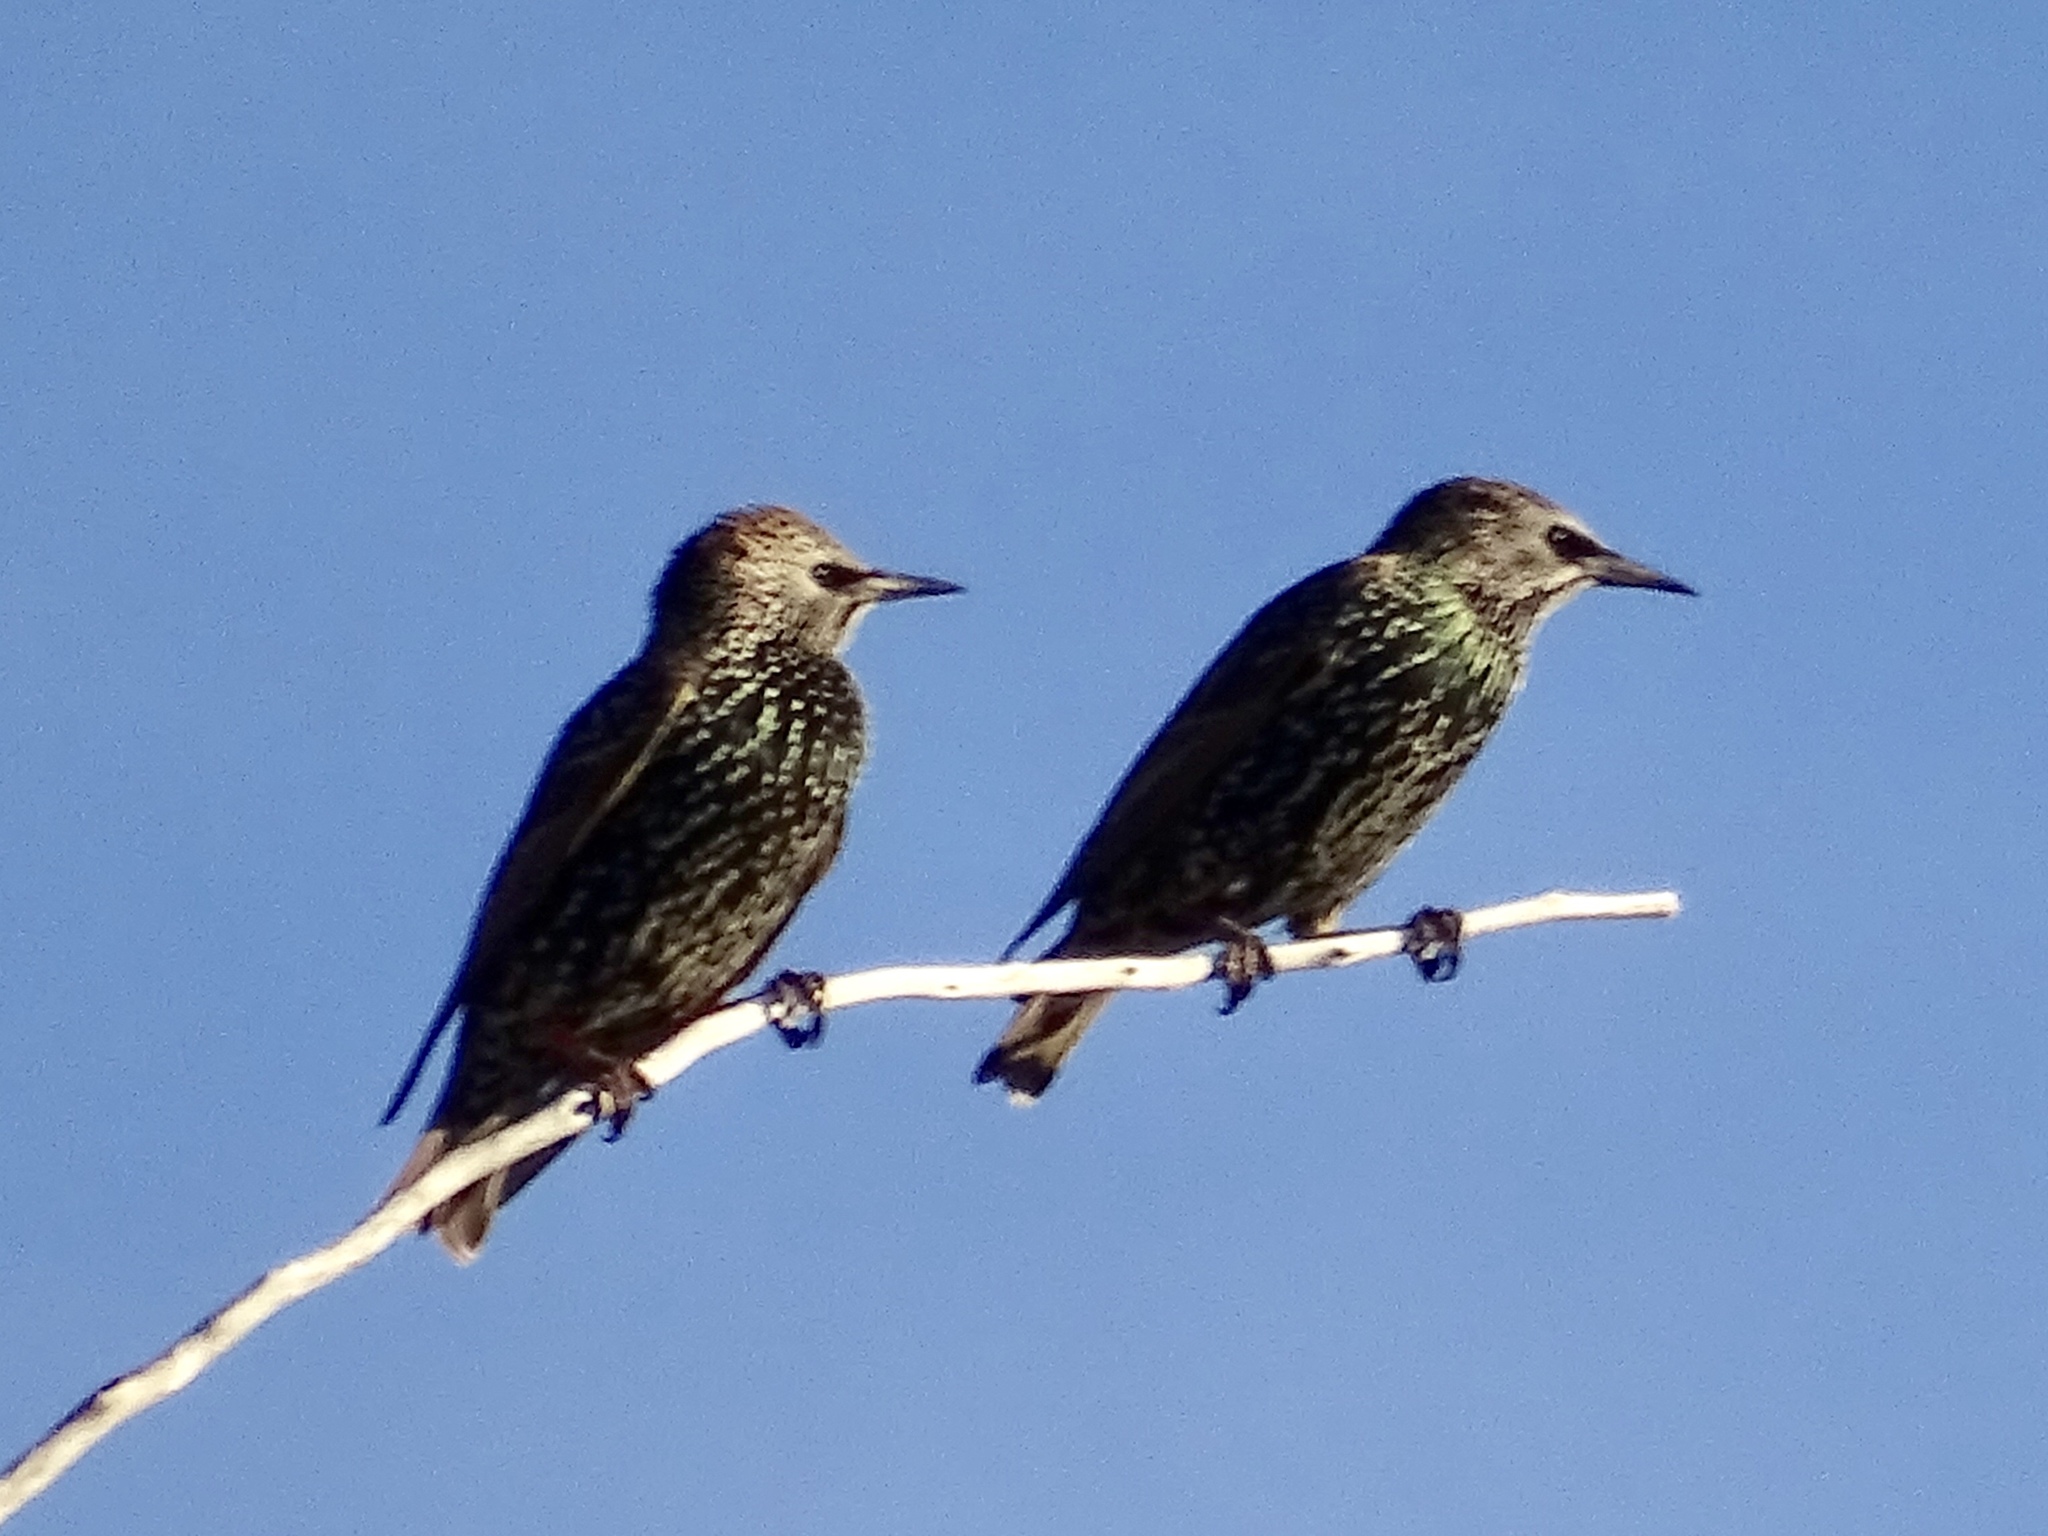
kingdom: Animalia
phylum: Chordata
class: Aves
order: Passeriformes
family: Sturnidae
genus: Sturnus
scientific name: Sturnus vulgaris
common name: Common starling
